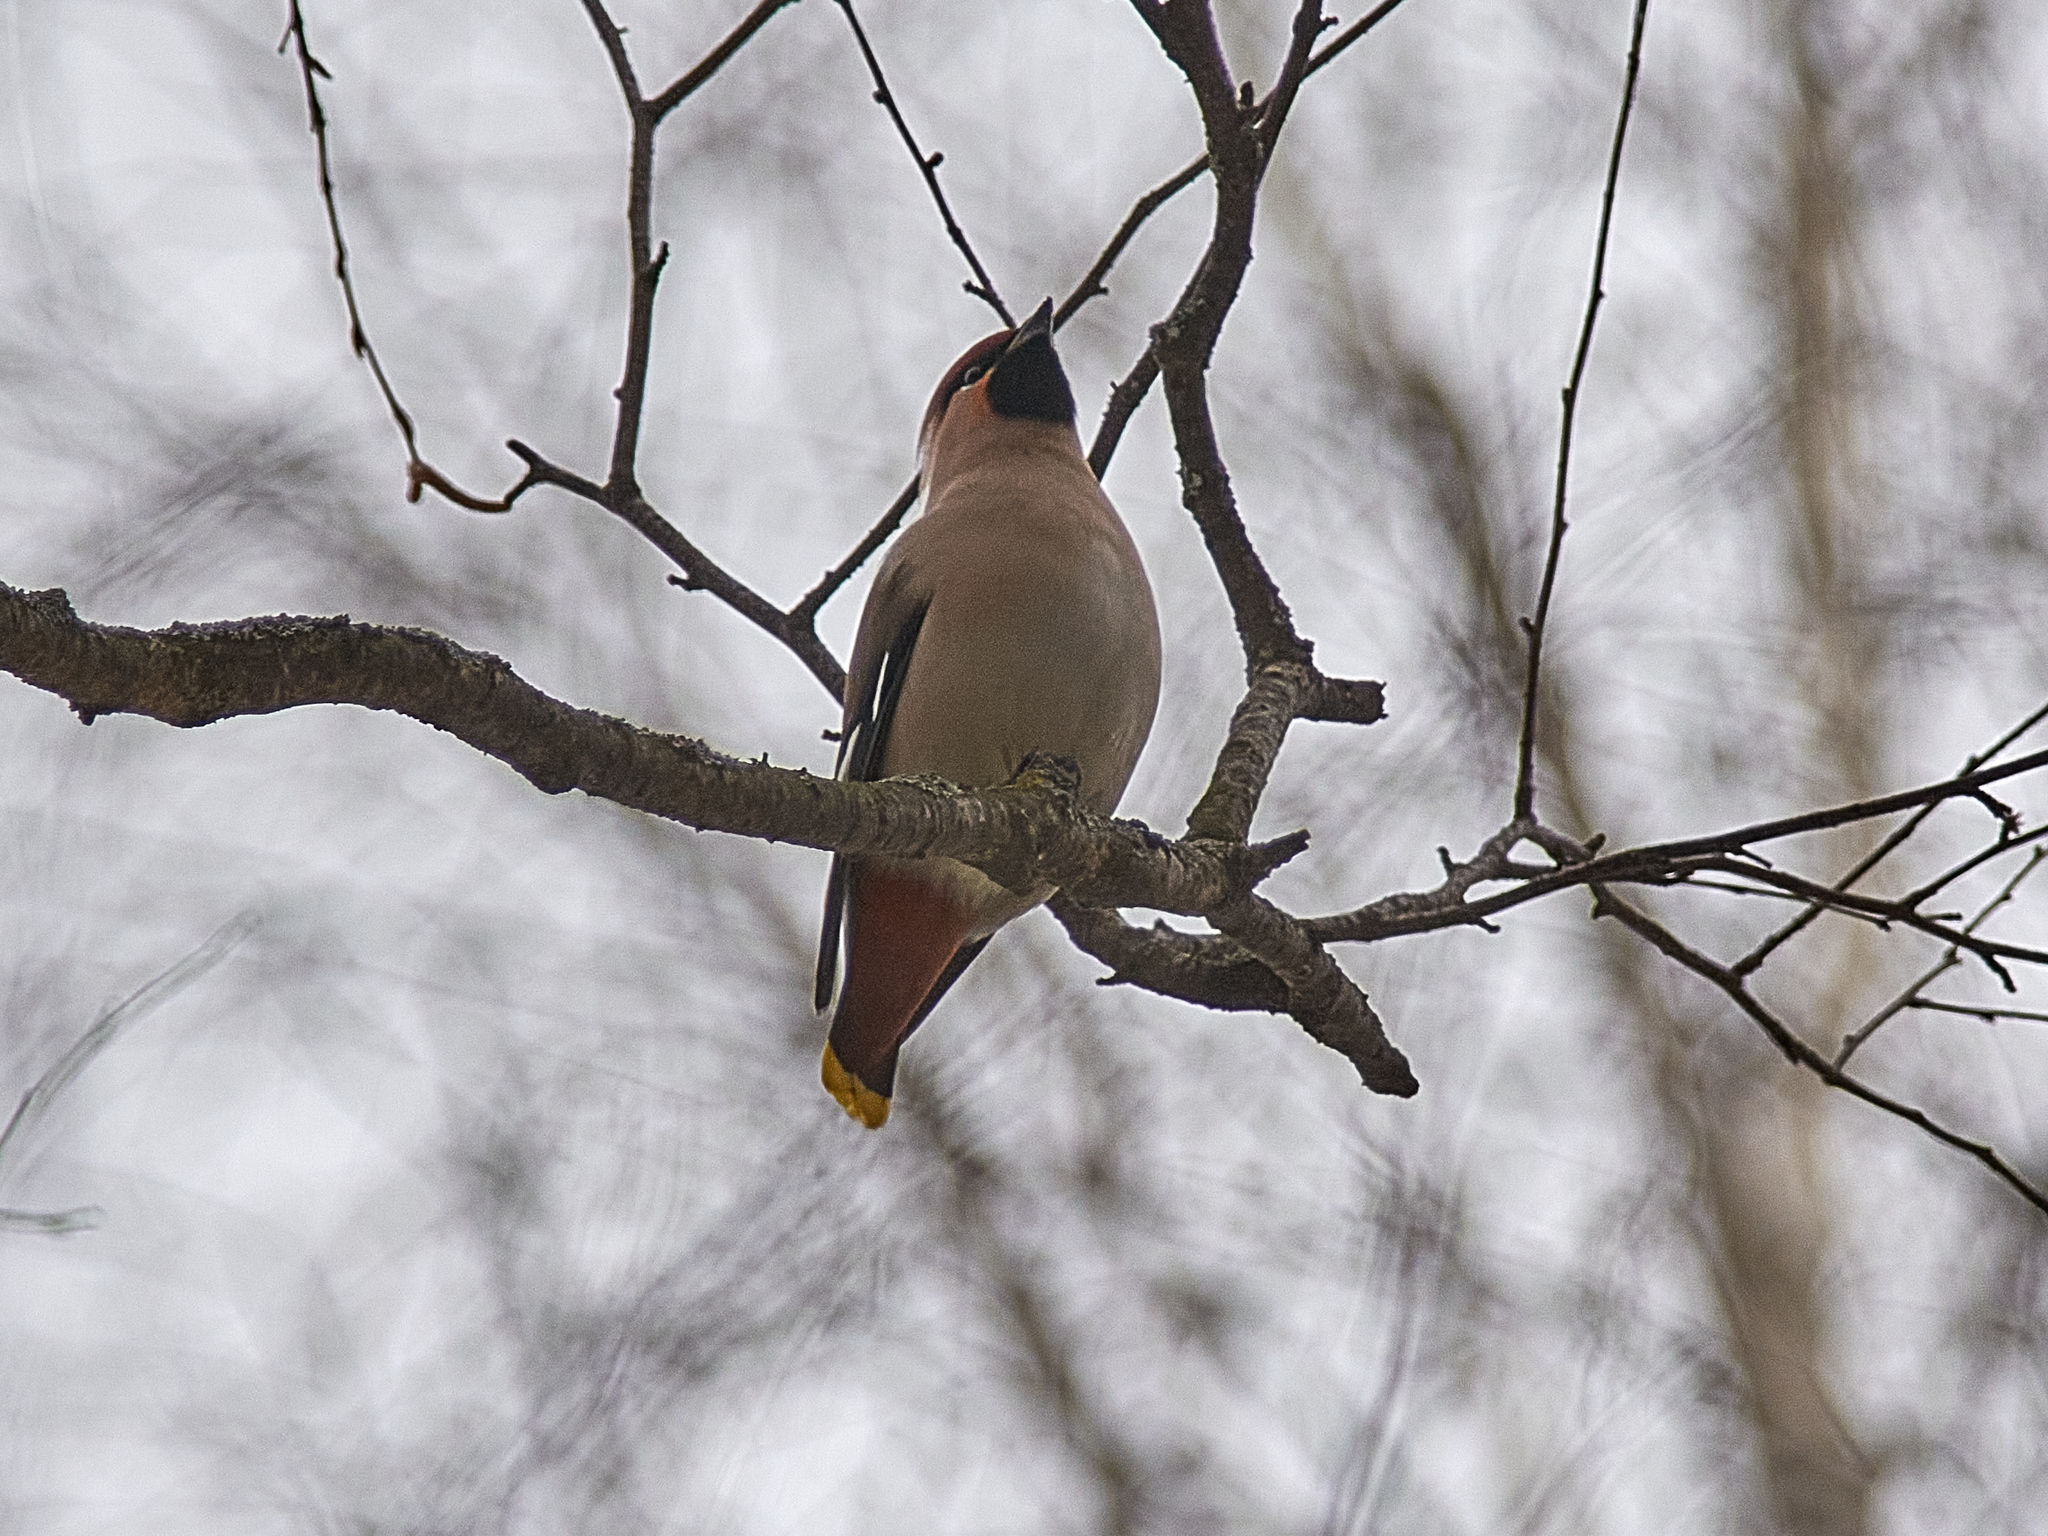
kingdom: Animalia
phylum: Chordata
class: Aves
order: Passeriformes
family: Bombycillidae
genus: Bombycilla
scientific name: Bombycilla garrulus
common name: Bohemian waxwing
